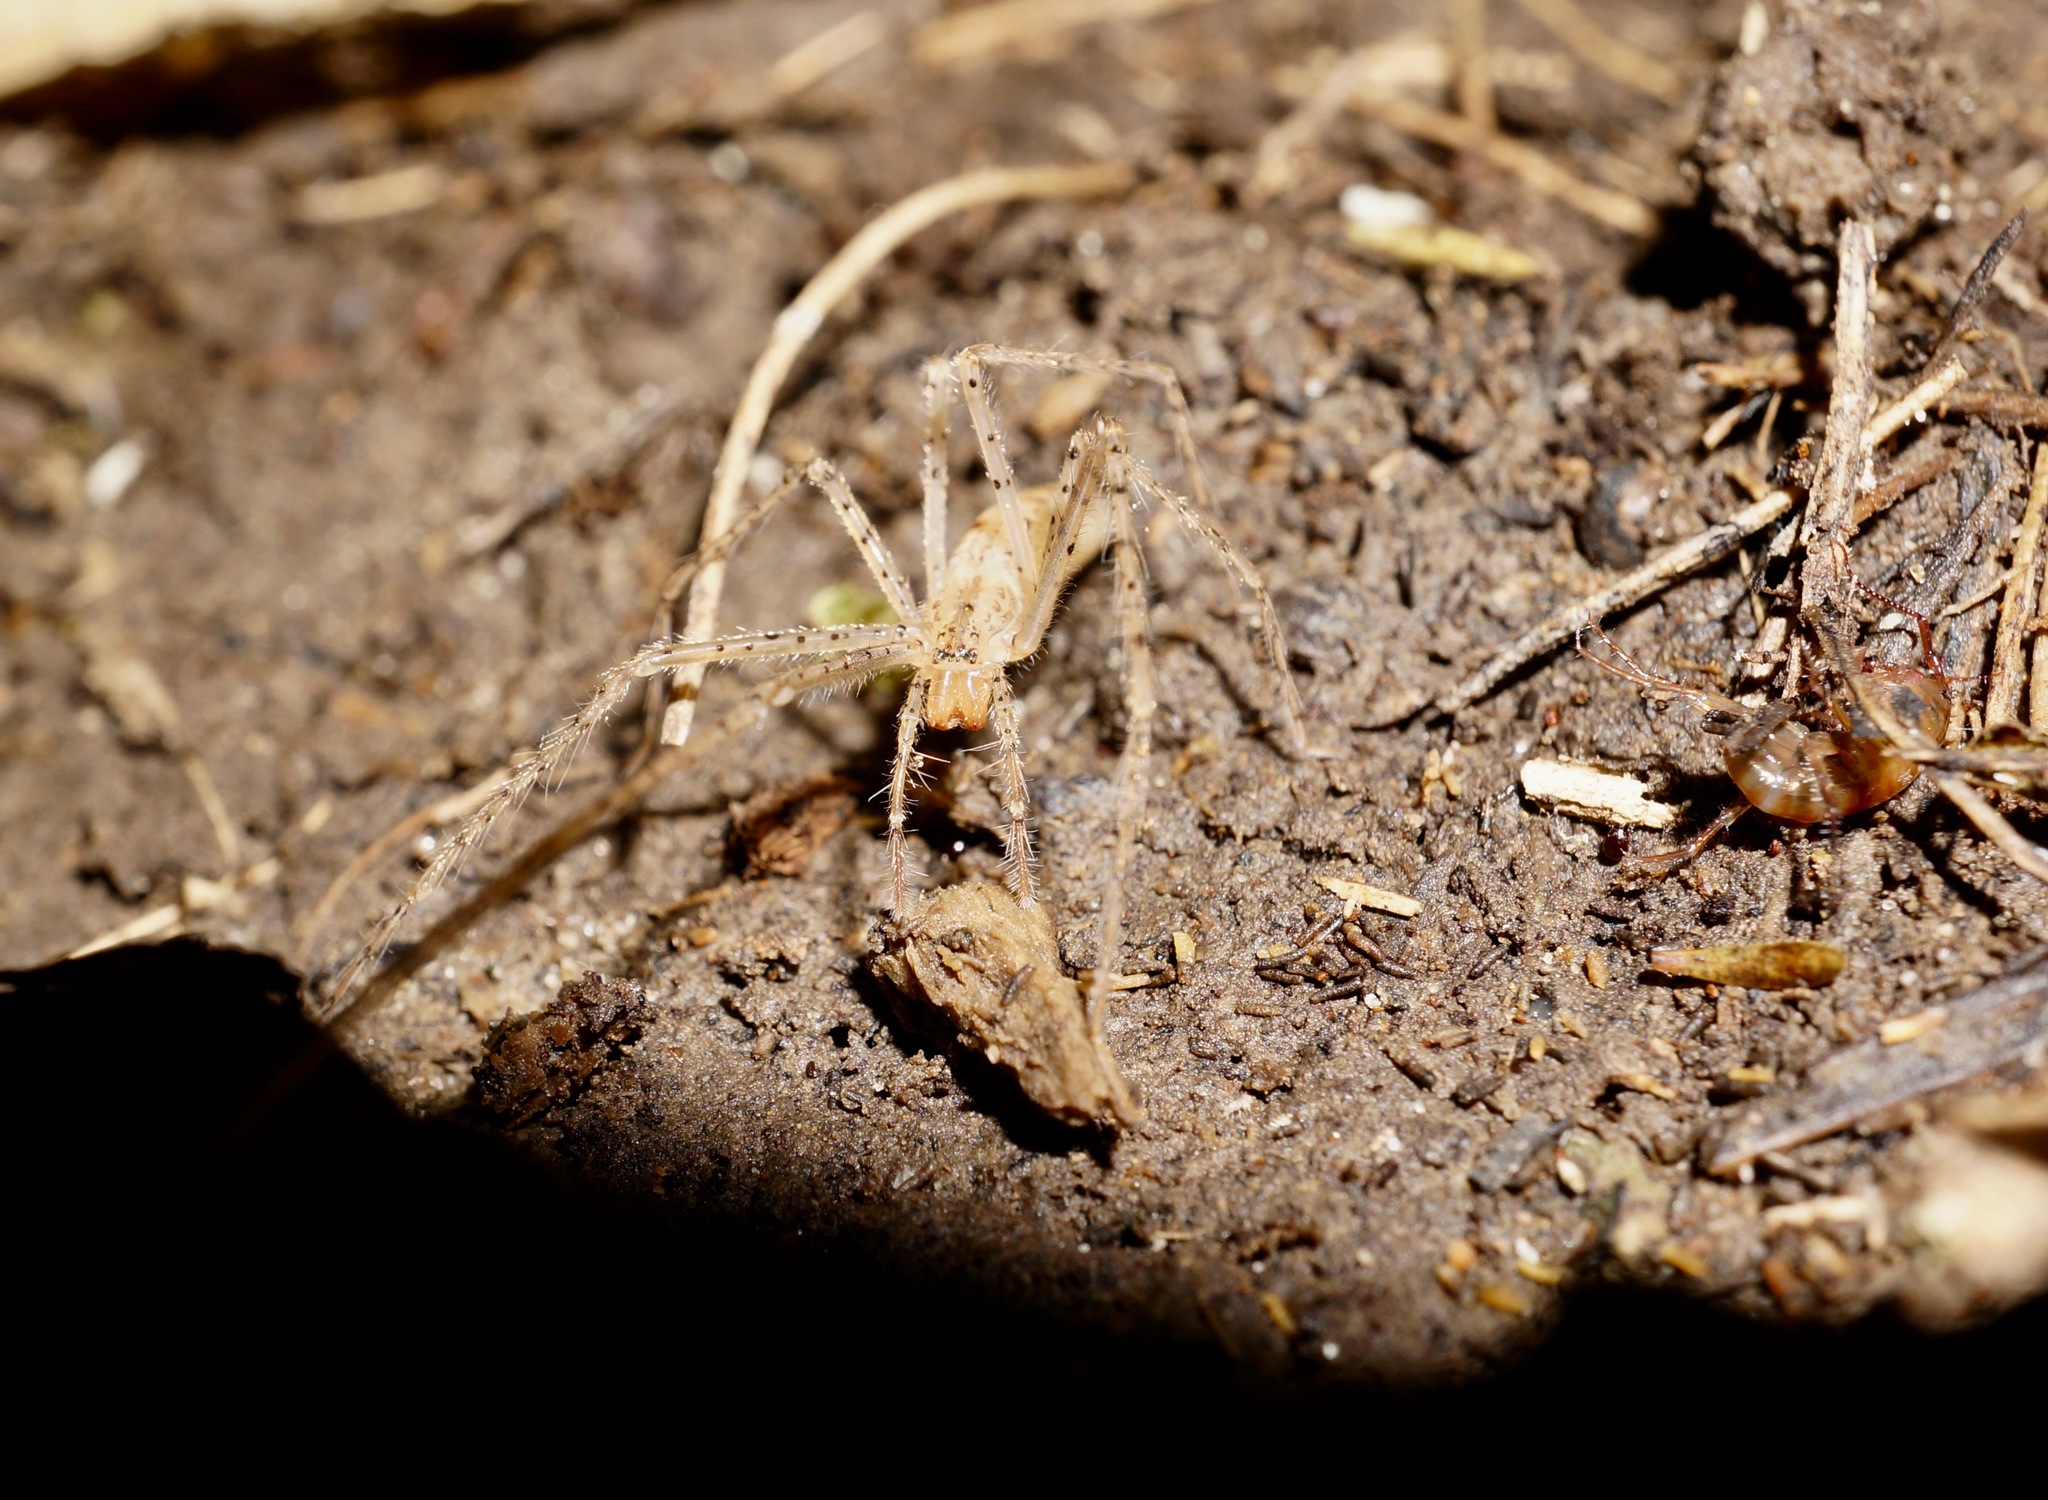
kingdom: Animalia
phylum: Arthropoda
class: Arachnida
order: Araneae
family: Desidae
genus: Ischalea
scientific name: Ischalea spinipes
